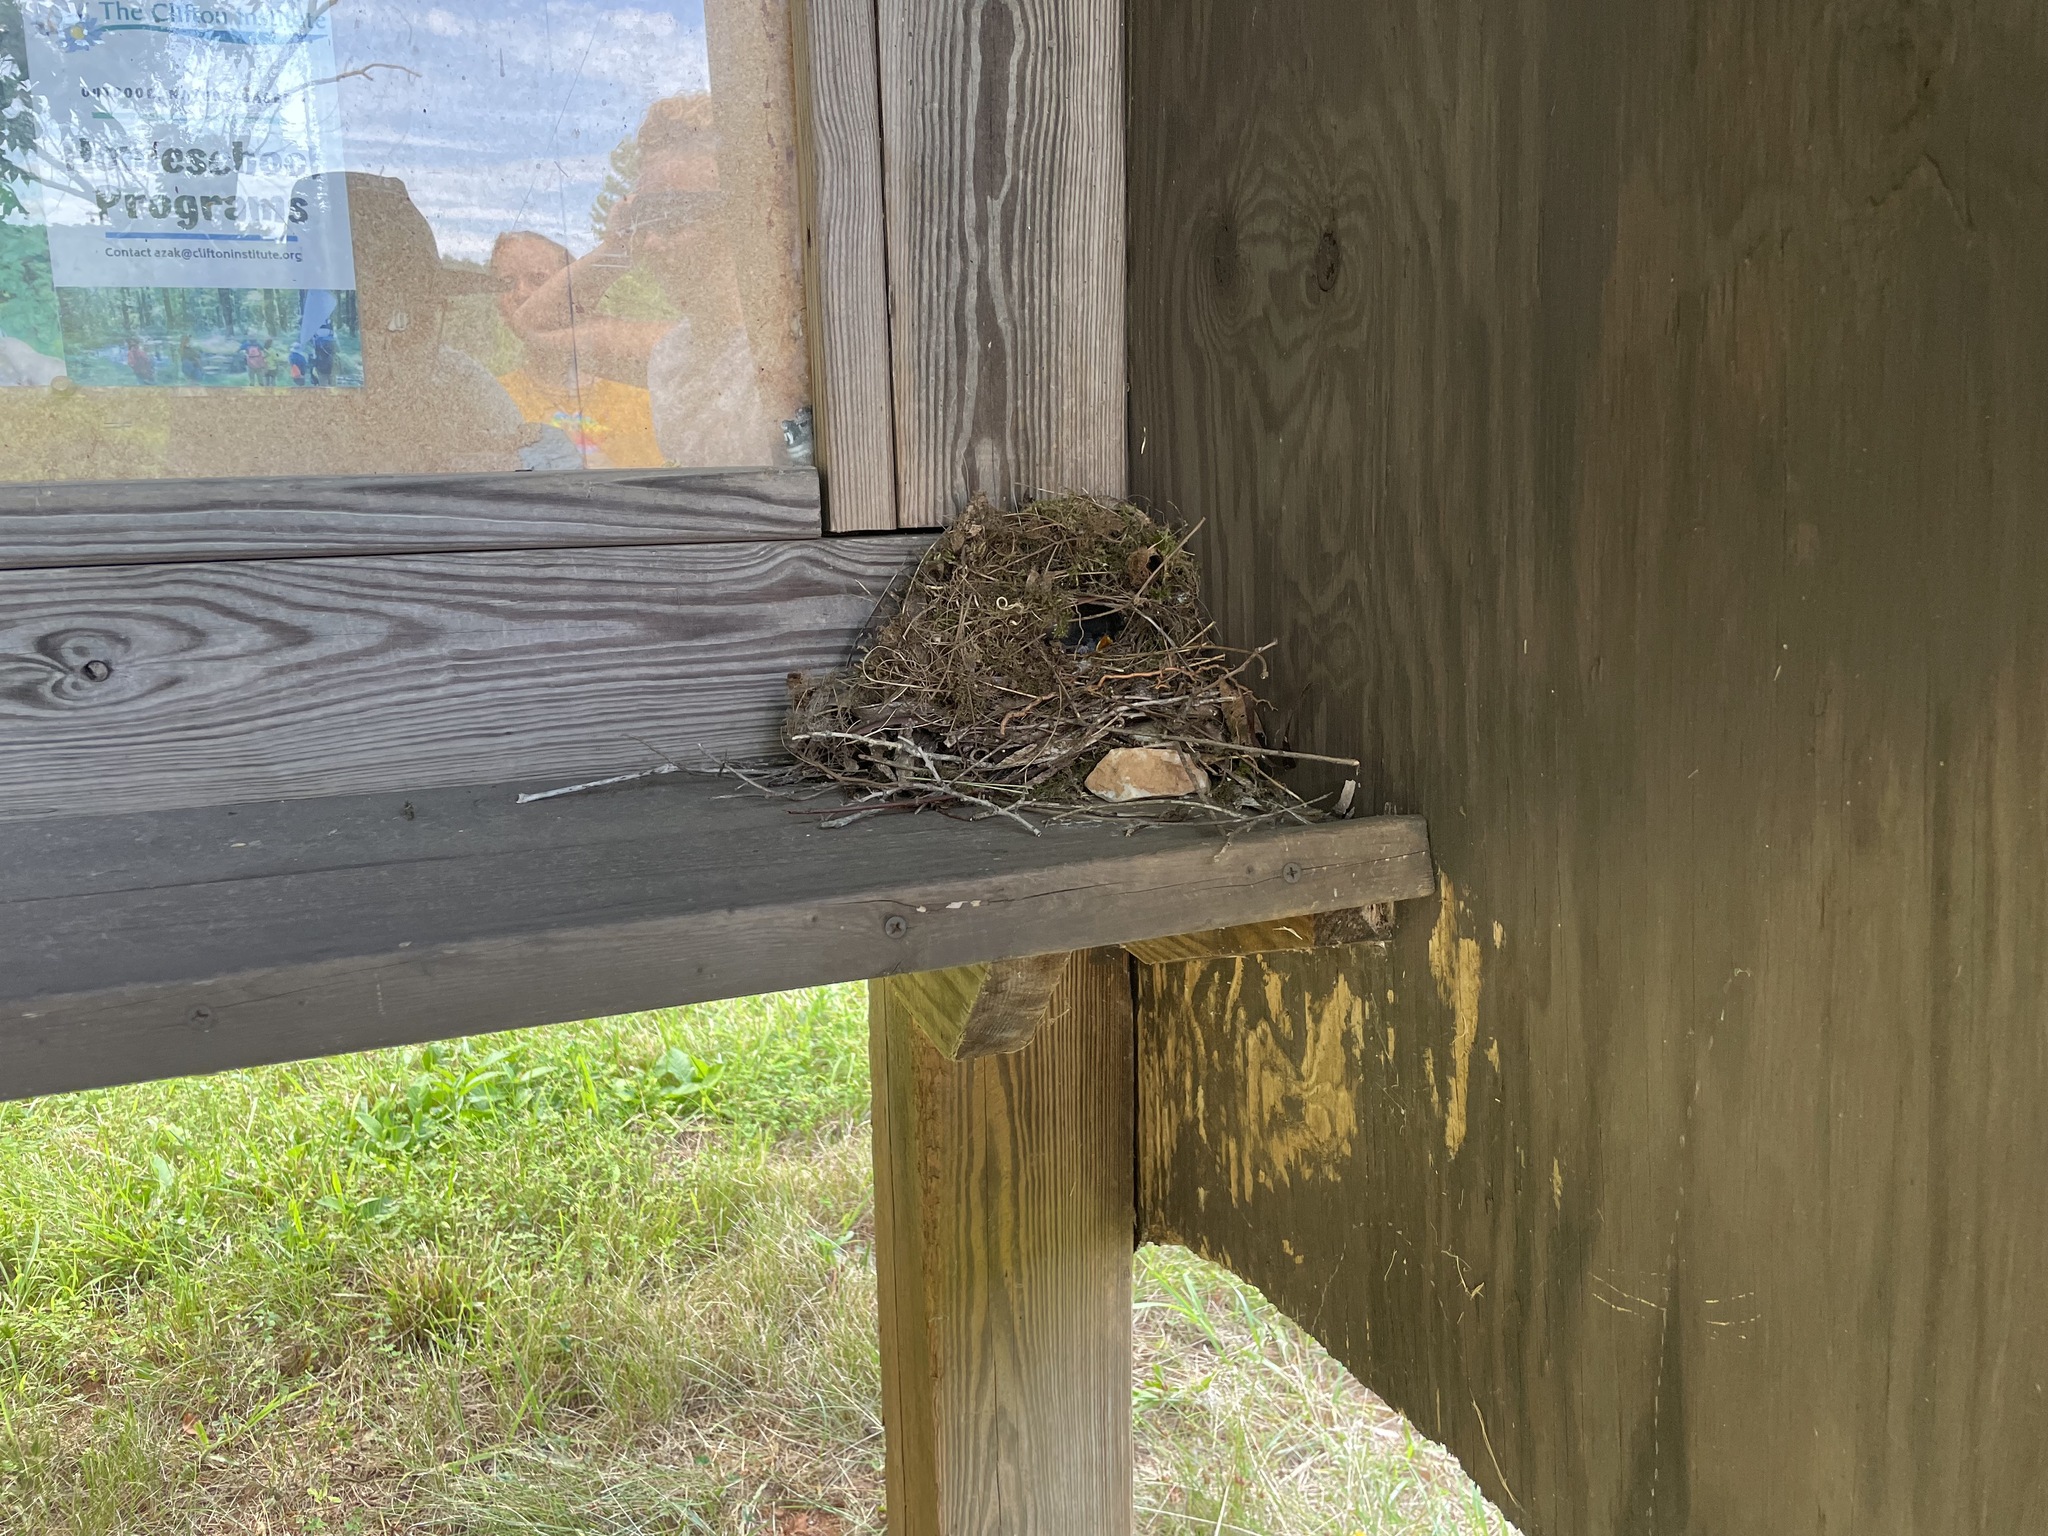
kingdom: Animalia
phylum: Chordata
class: Aves
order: Passeriformes
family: Tyrannidae
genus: Sayornis
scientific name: Sayornis phoebe
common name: Eastern phoebe
